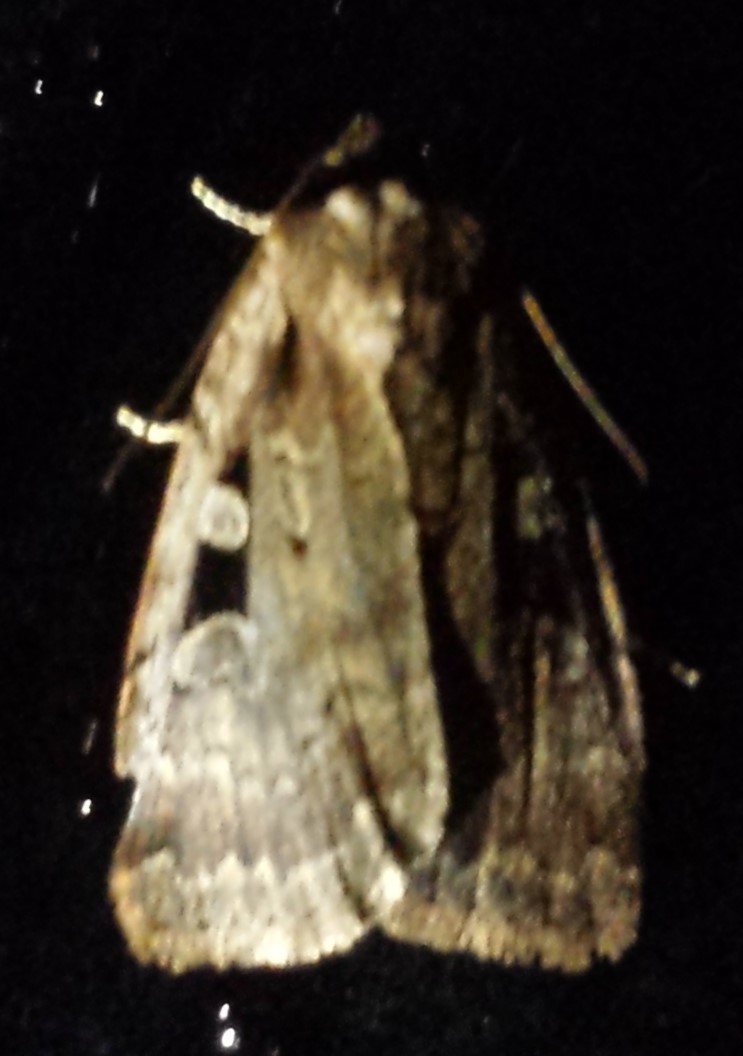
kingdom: Animalia
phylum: Arthropoda
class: Insecta
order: Lepidoptera
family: Noctuidae
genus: Eueretagrotis
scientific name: Eueretagrotis perattentus
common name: Two-spot dart moth
